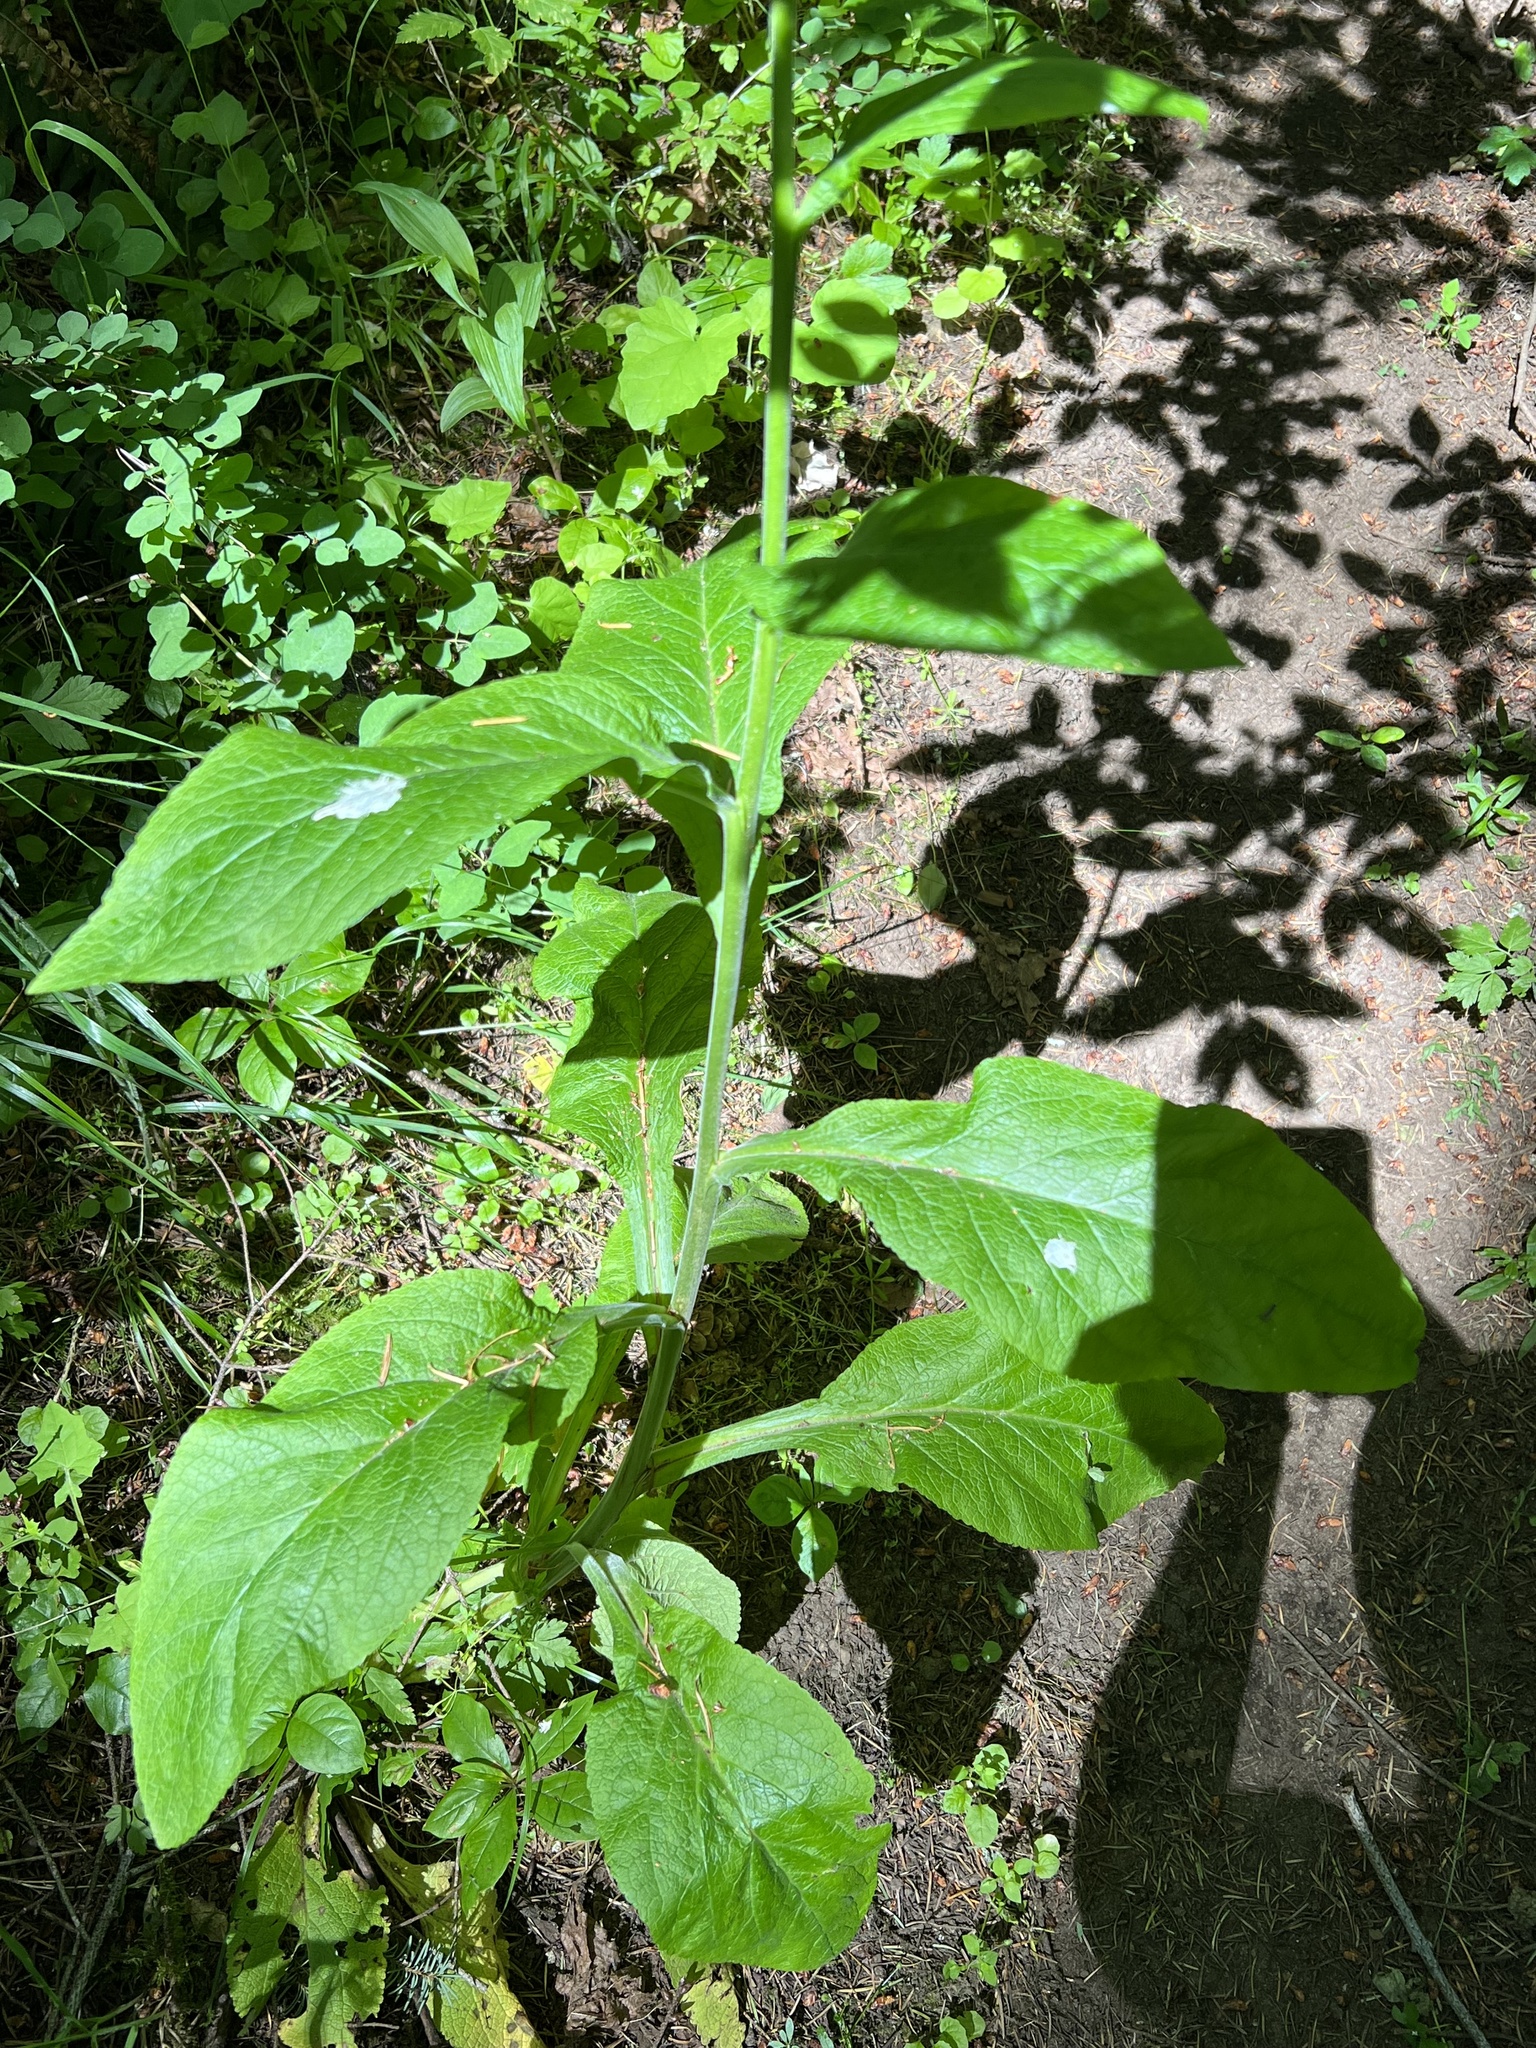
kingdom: Plantae
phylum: Tracheophyta
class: Magnoliopsida
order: Lamiales
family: Plantaginaceae
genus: Digitalis
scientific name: Digitalis purpurea
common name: Foxglove
